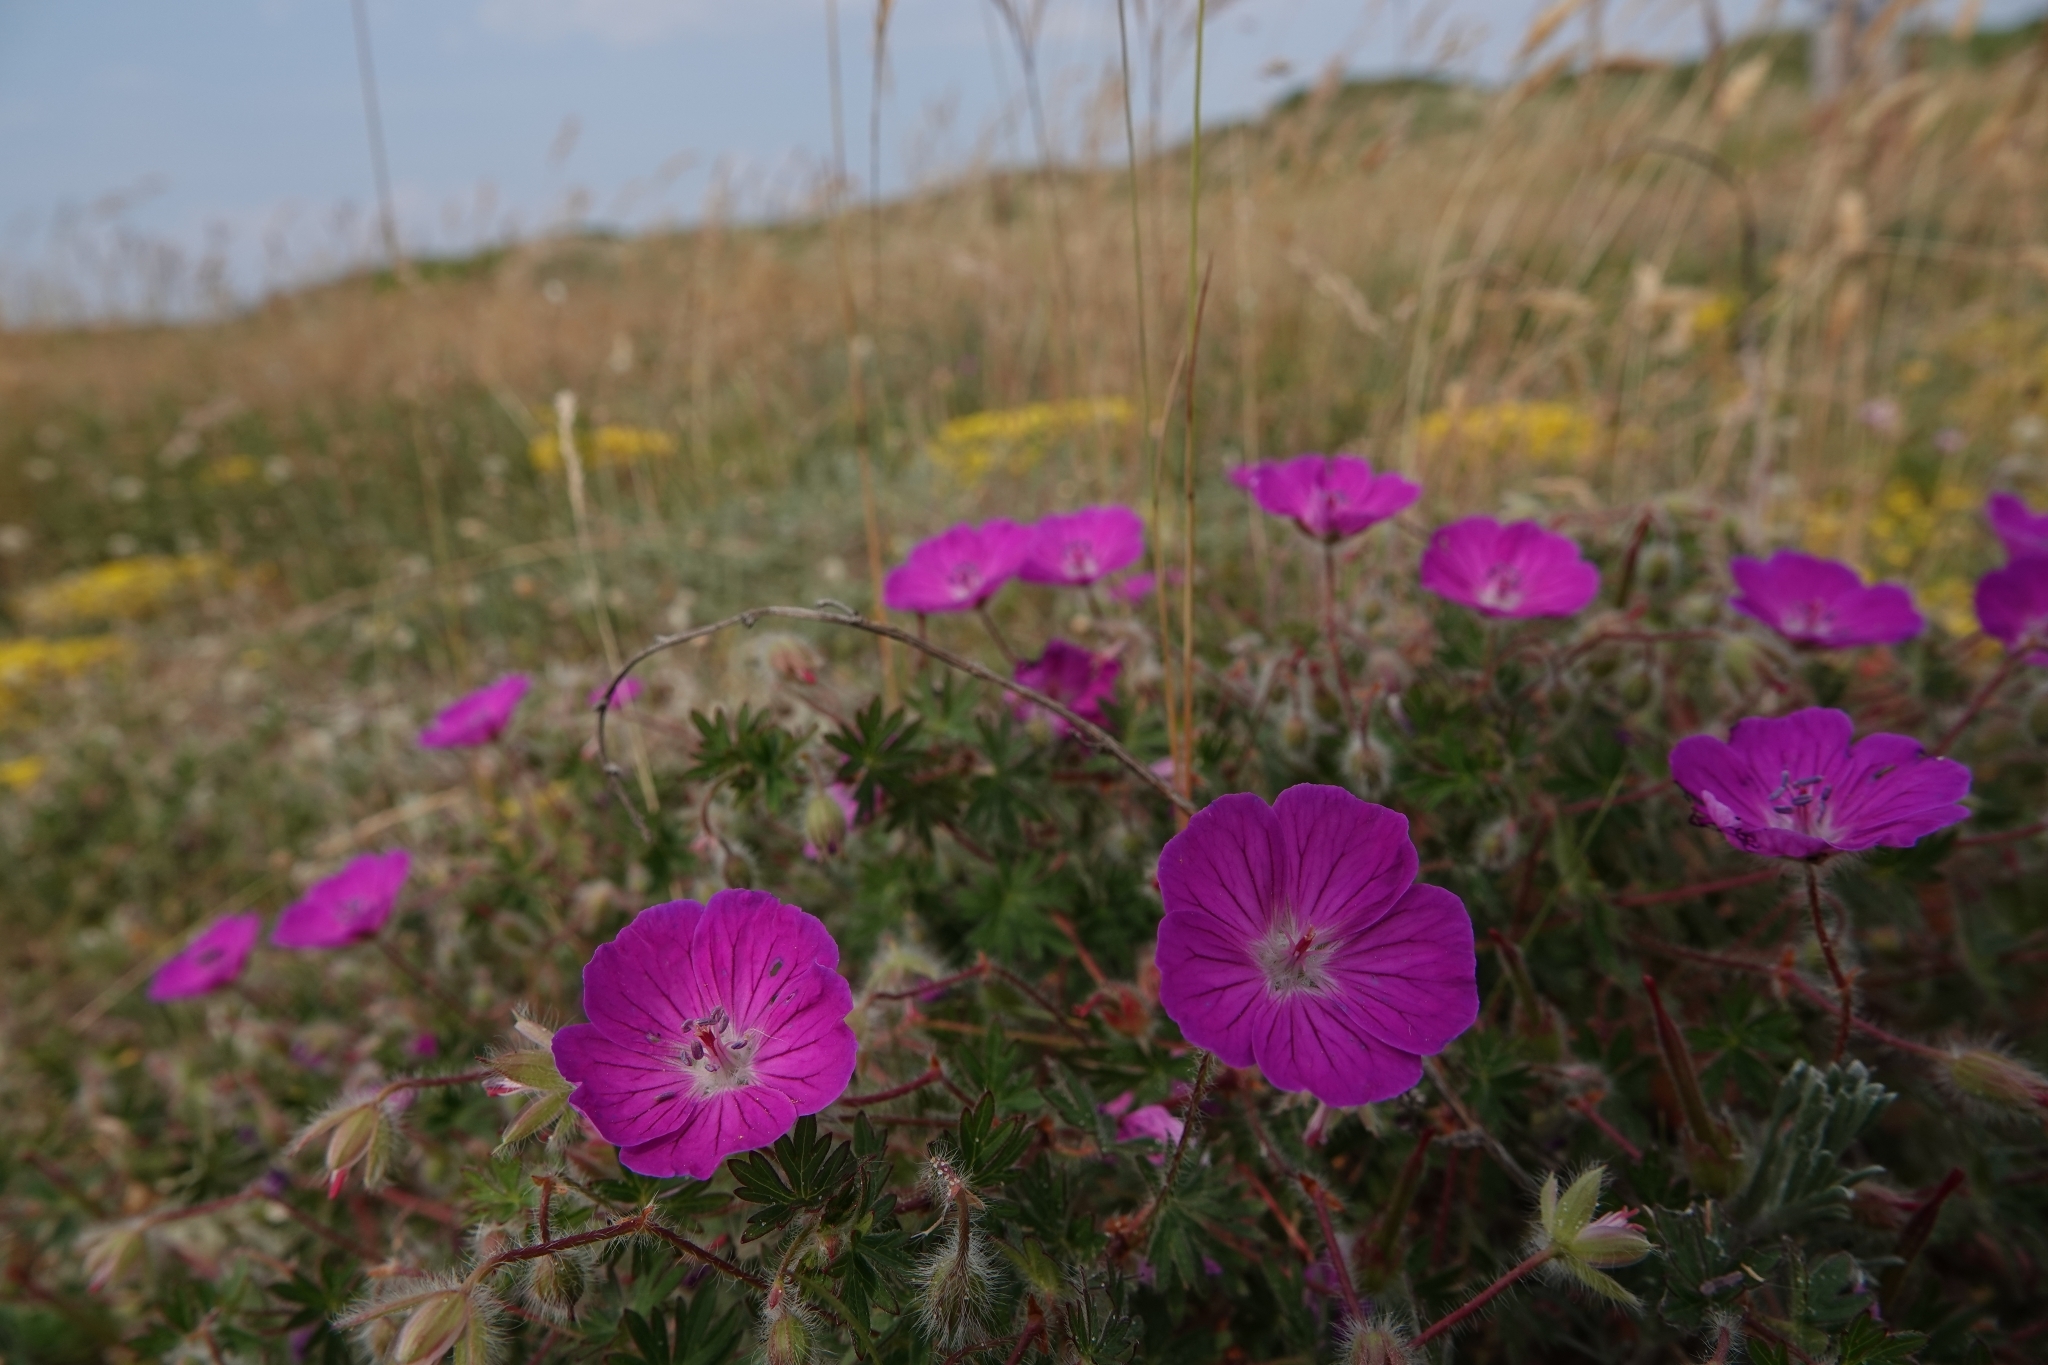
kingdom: Plantae
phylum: Tracheophyta
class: Magnoliopsida
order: Geraniales
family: Geraniaceae
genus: Geranium
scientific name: Geranium sanguineum
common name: Bloody crane's-bill
